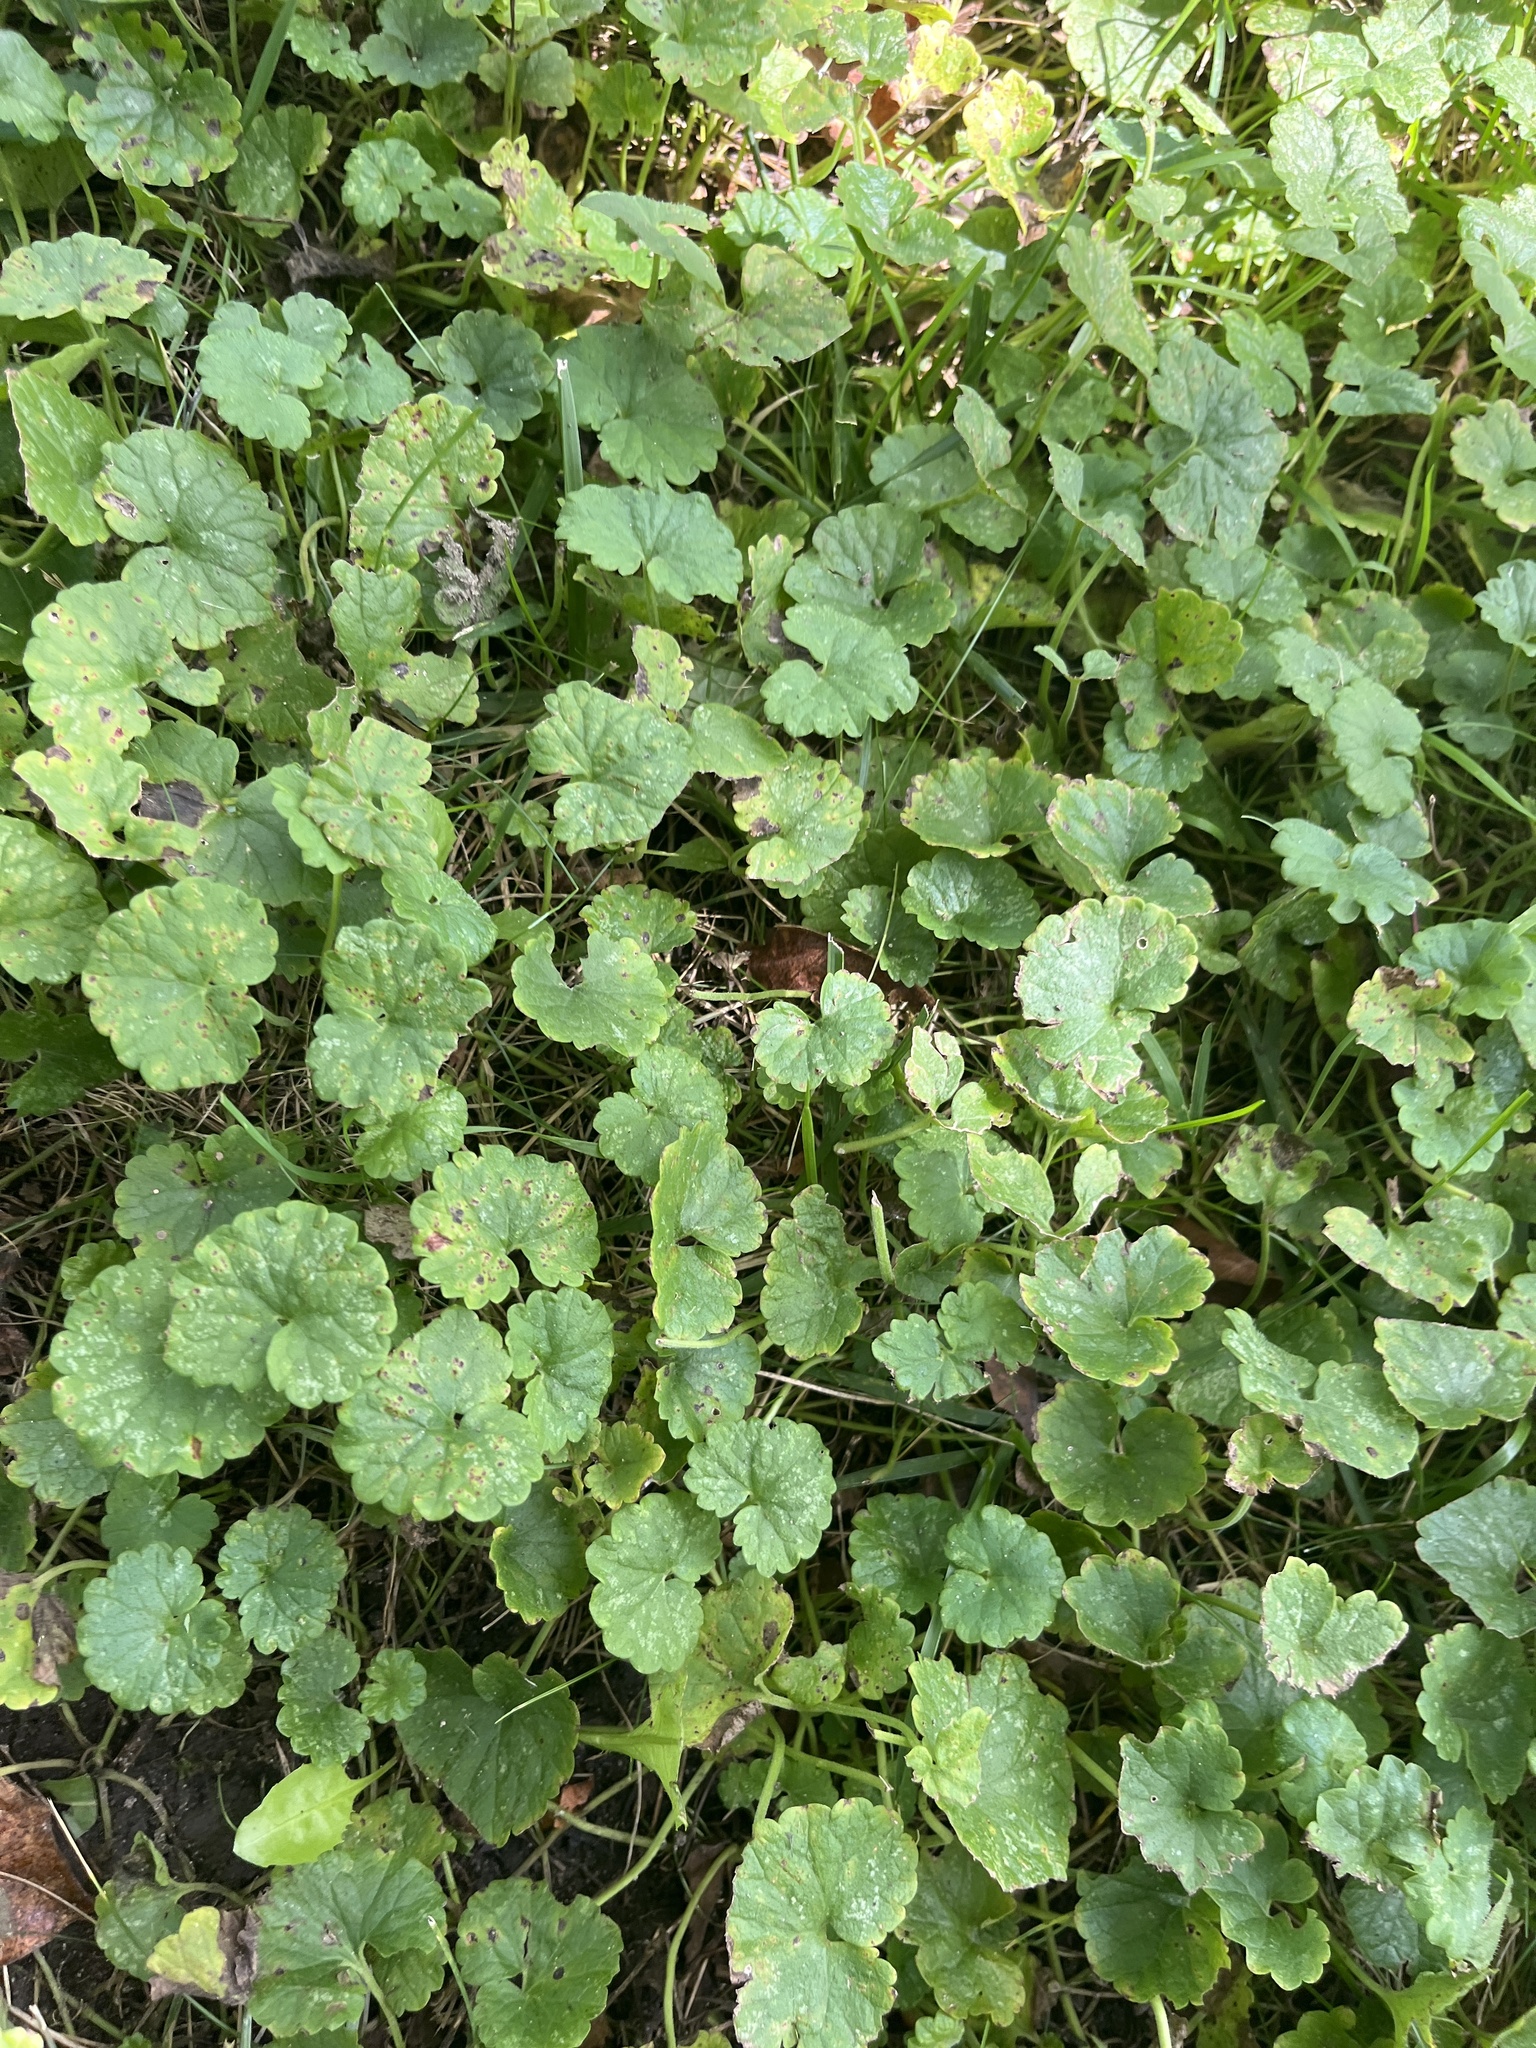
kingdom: Plantae
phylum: Tracheophyta
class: Magnoliopsida
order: Lamiales
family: Lamiaceae
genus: Glechoma
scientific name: Glechoma hederacea
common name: Ground ivy
